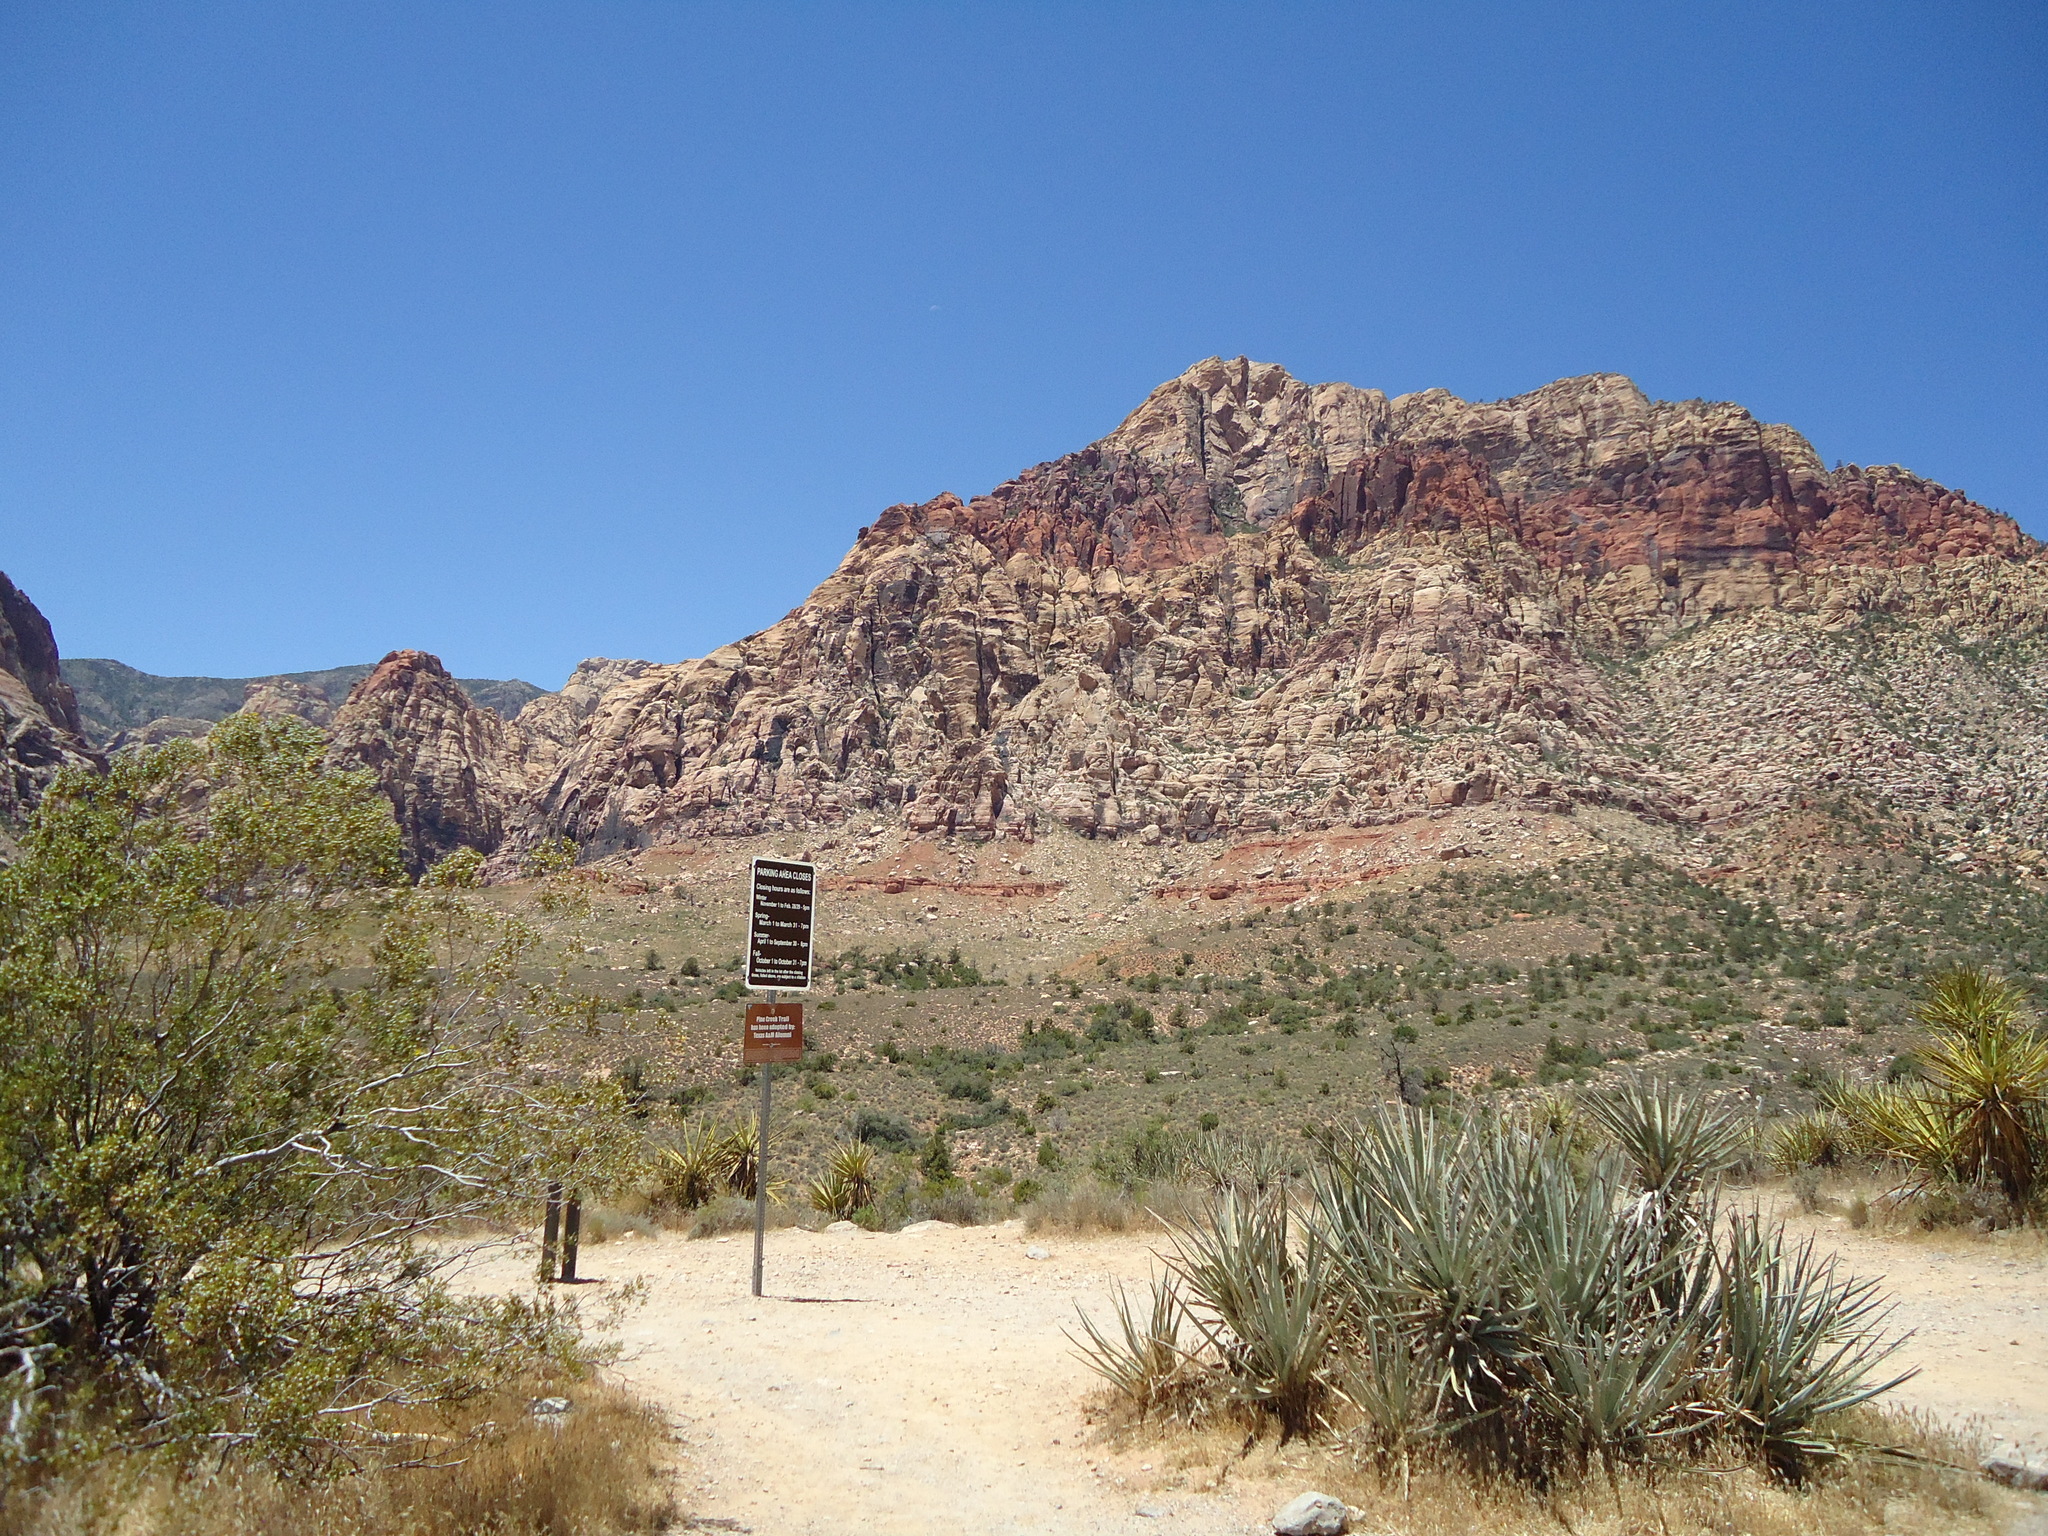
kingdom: Plantae
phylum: Tracheophyta
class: Liliopsida
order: Asparagales
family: Asparagaceae
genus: Yucca
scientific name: Yucca schidigera
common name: Mojave yucca
